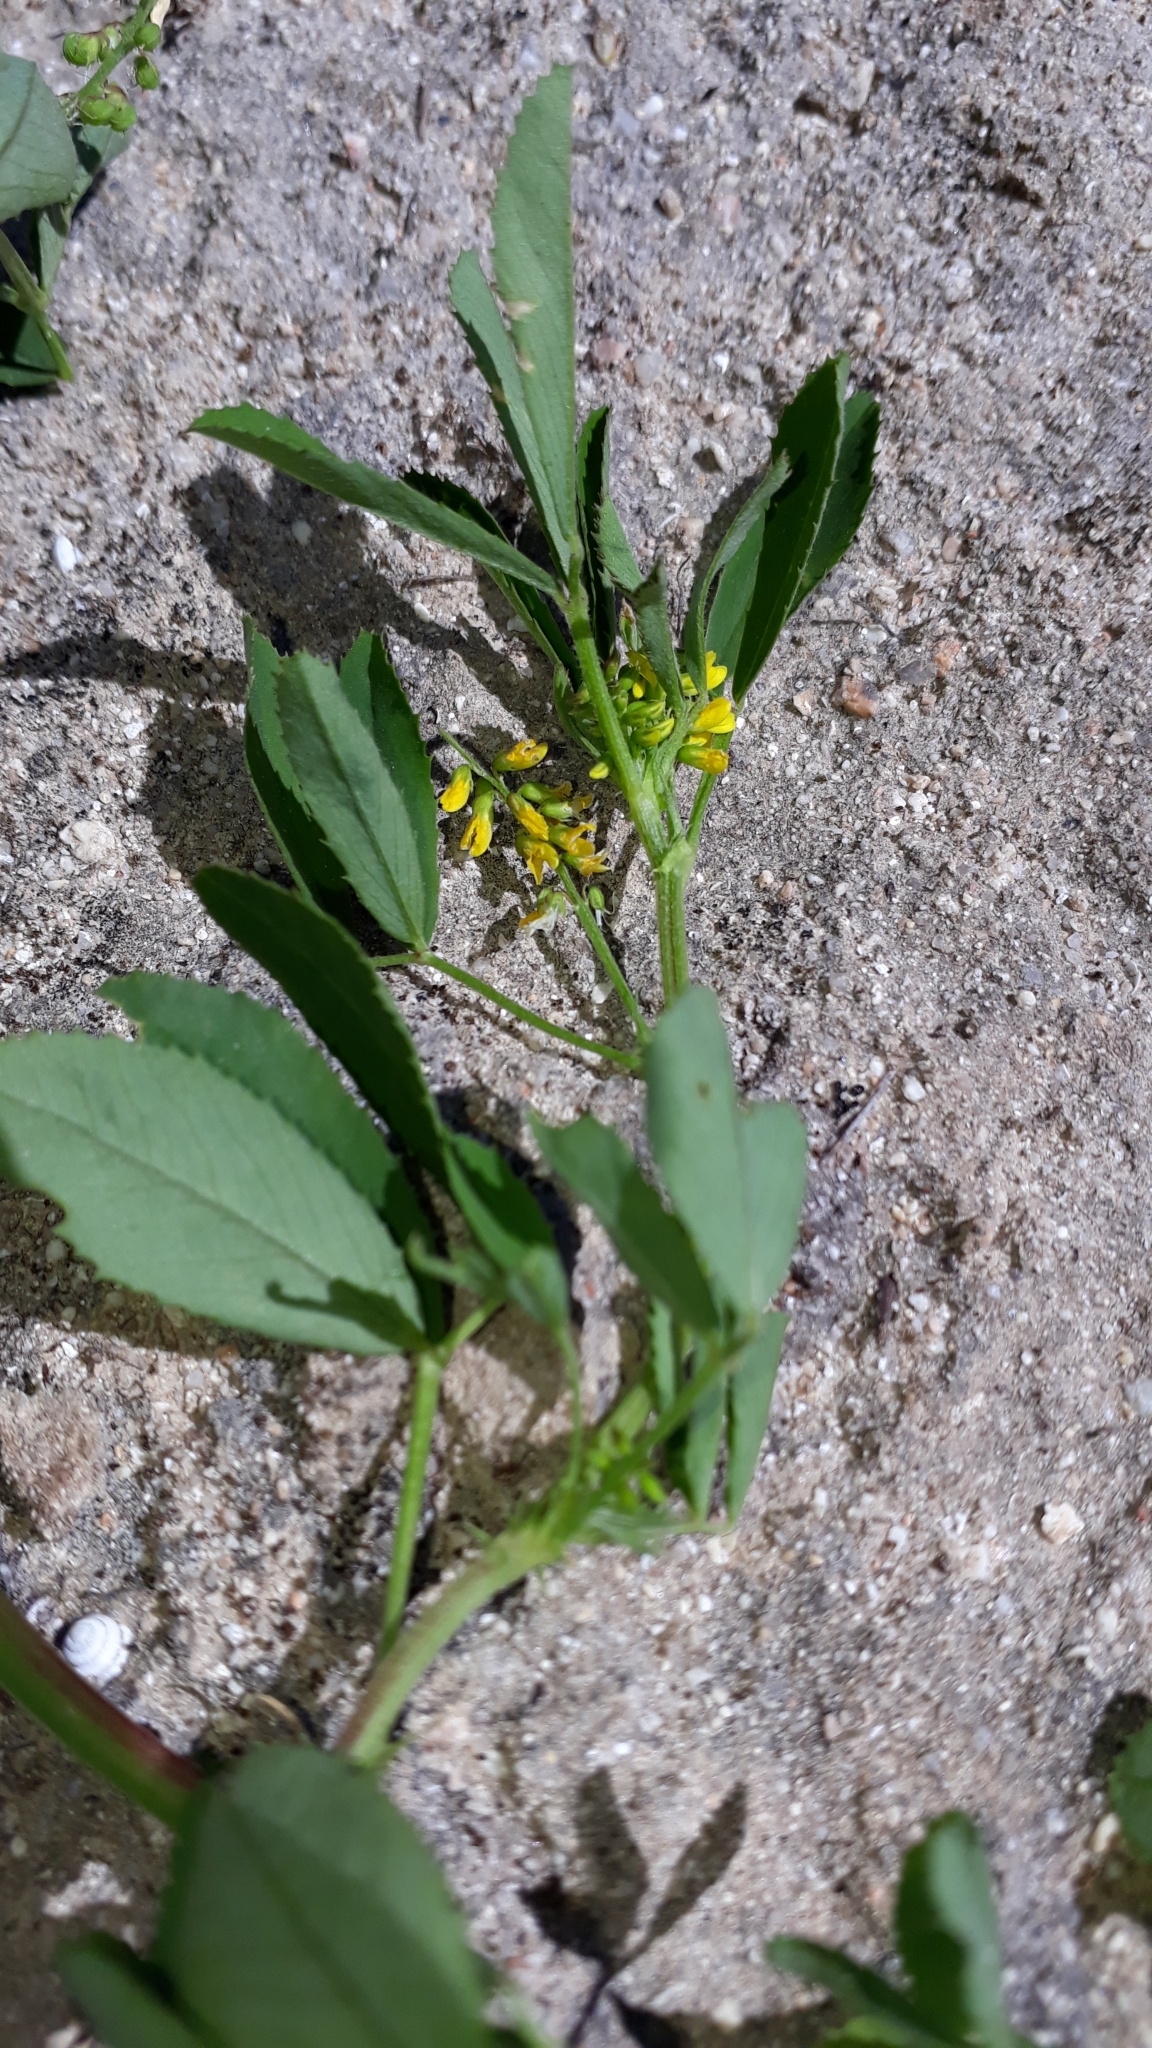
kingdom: Plantae
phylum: Tracheophyta
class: Magnoliopsida
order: Fabales
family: Fabaceae
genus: Melilotus
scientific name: Melilotus sulcatus
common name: Furrowed melilot
